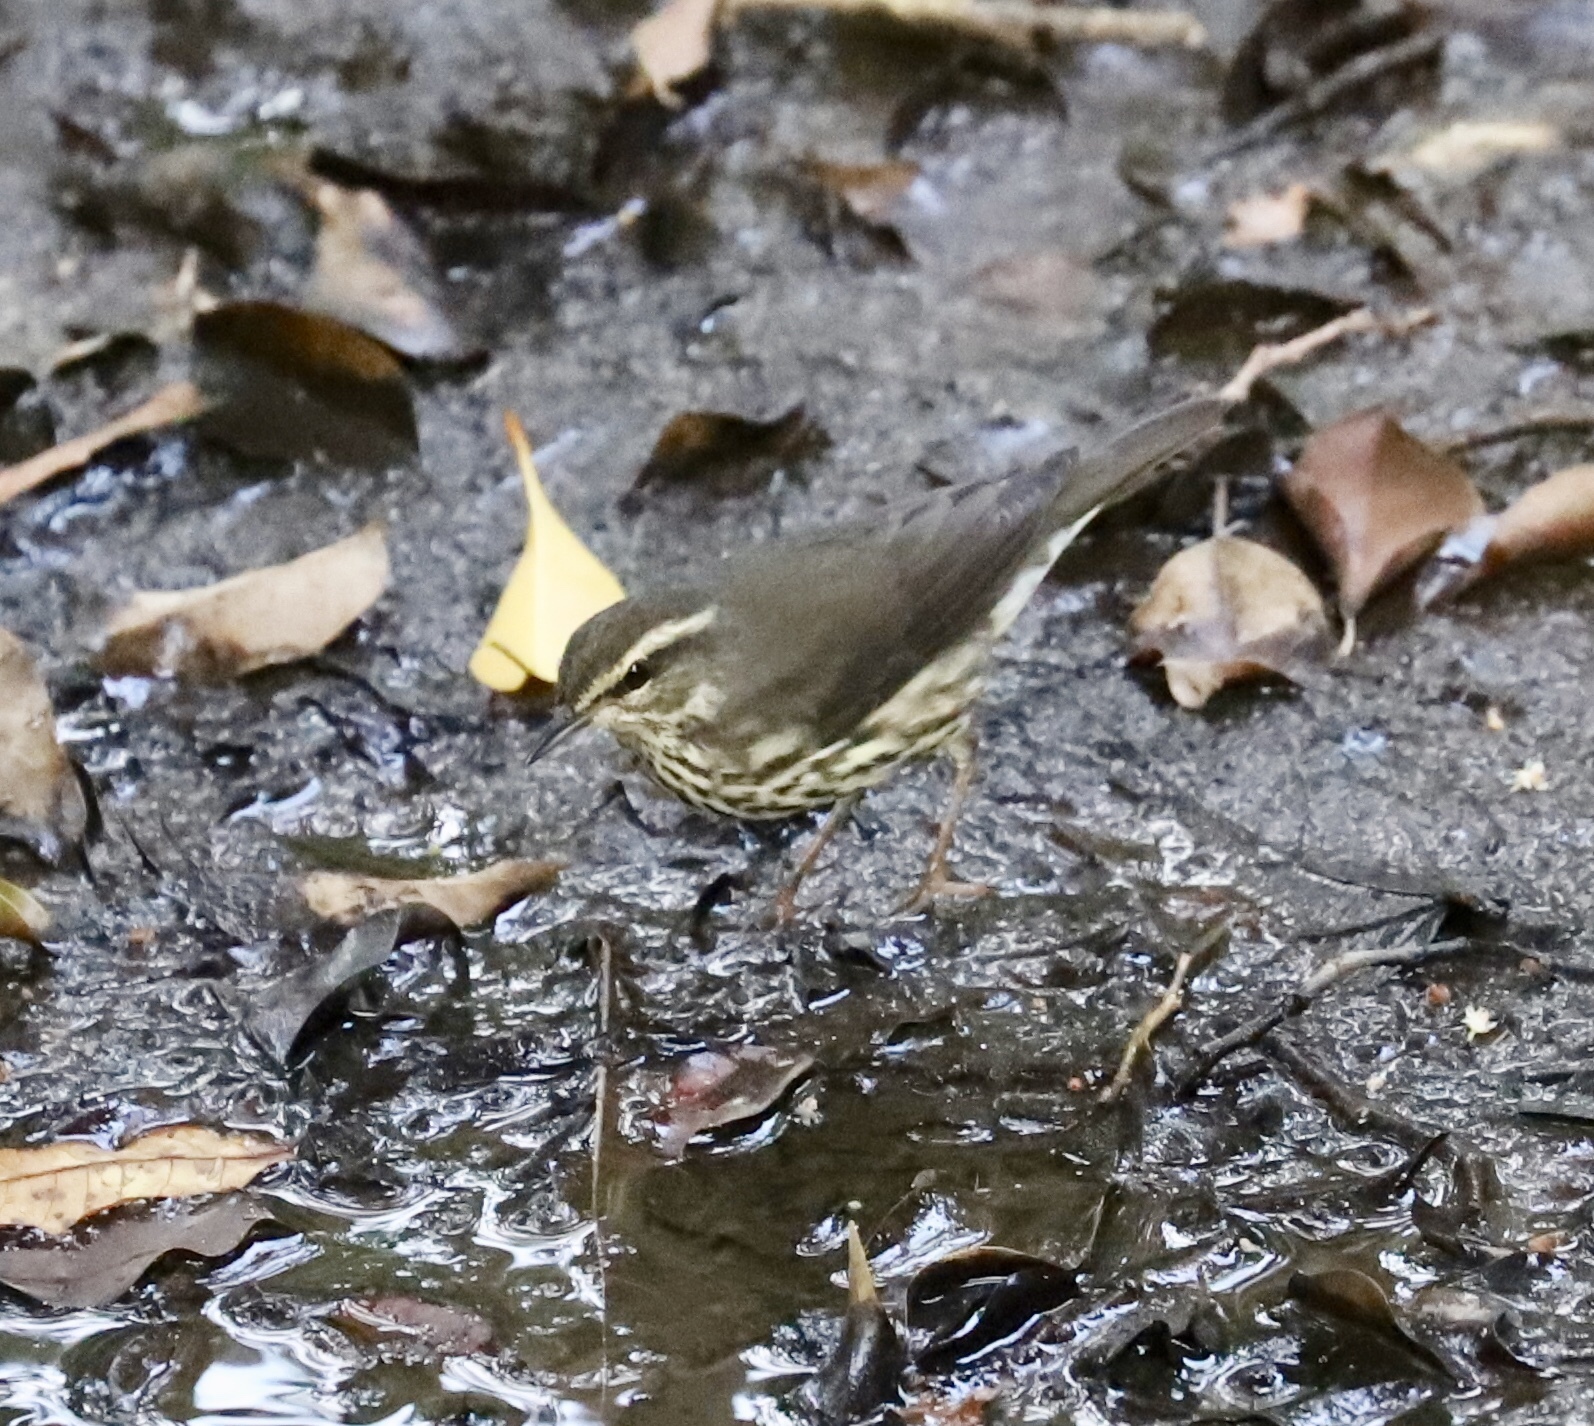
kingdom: Animalia
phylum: Chordata
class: Aves
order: Passeriformes
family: Parulidae
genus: Parkesia
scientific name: Parkesia noveboracensis
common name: Northern waterthrush
